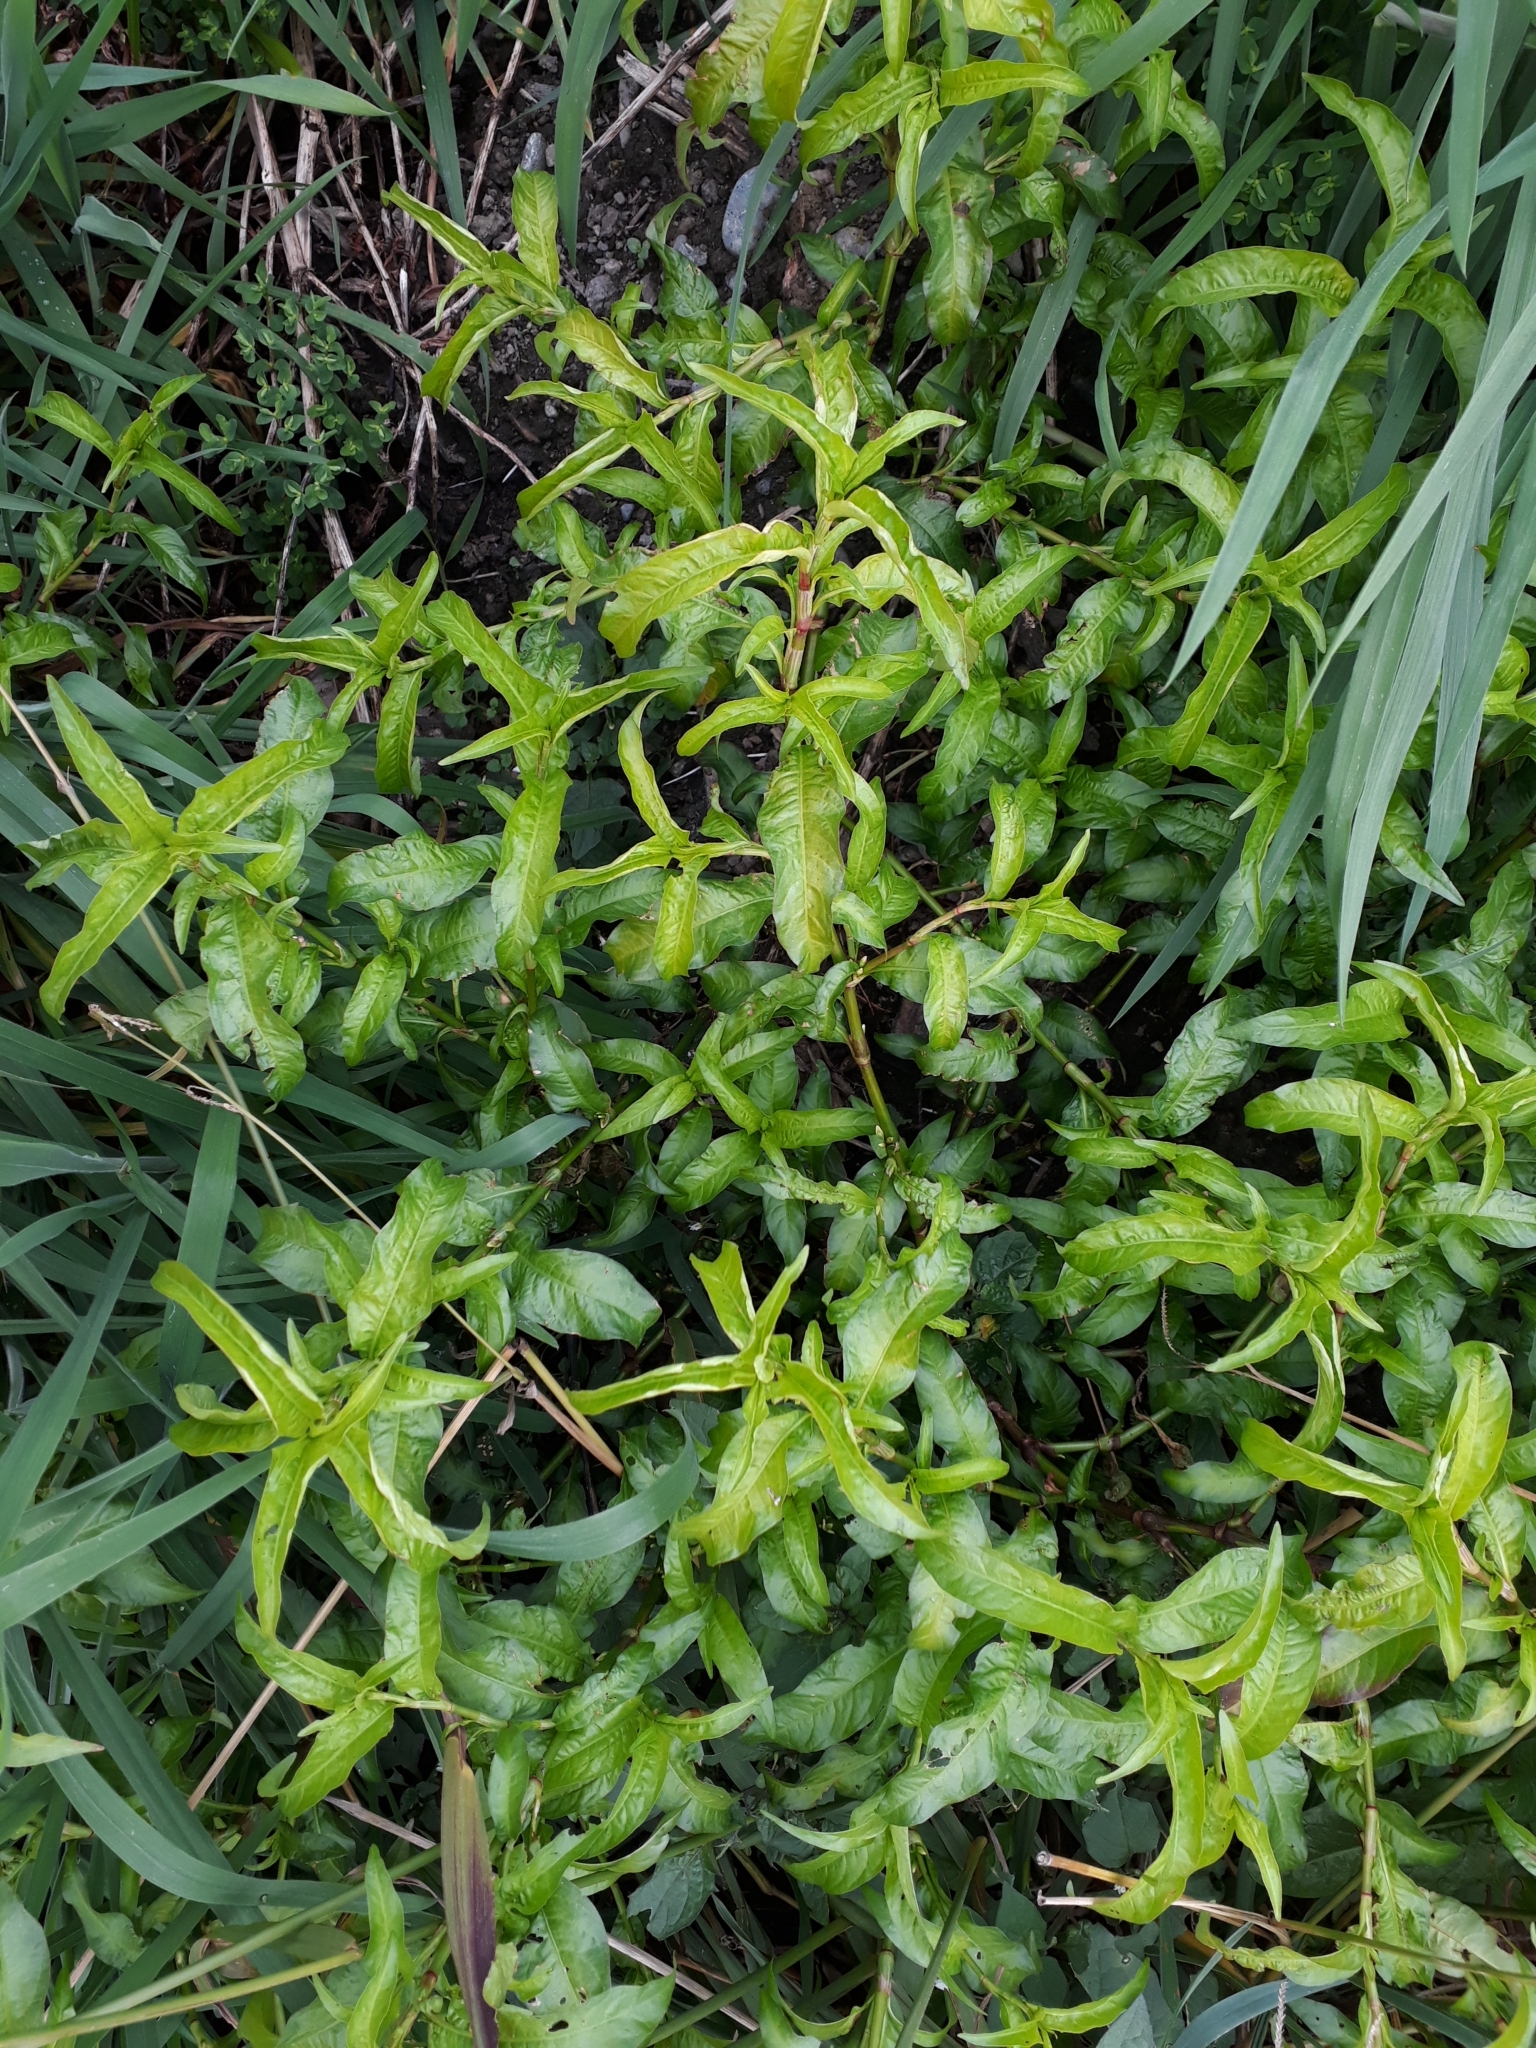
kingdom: Plantae
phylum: Tracheophyta
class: Magnoliopsida
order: Caryophyllales
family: Polygonaceae
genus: Persicaria
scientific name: Persicaria hydropiper
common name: Water-pepper
